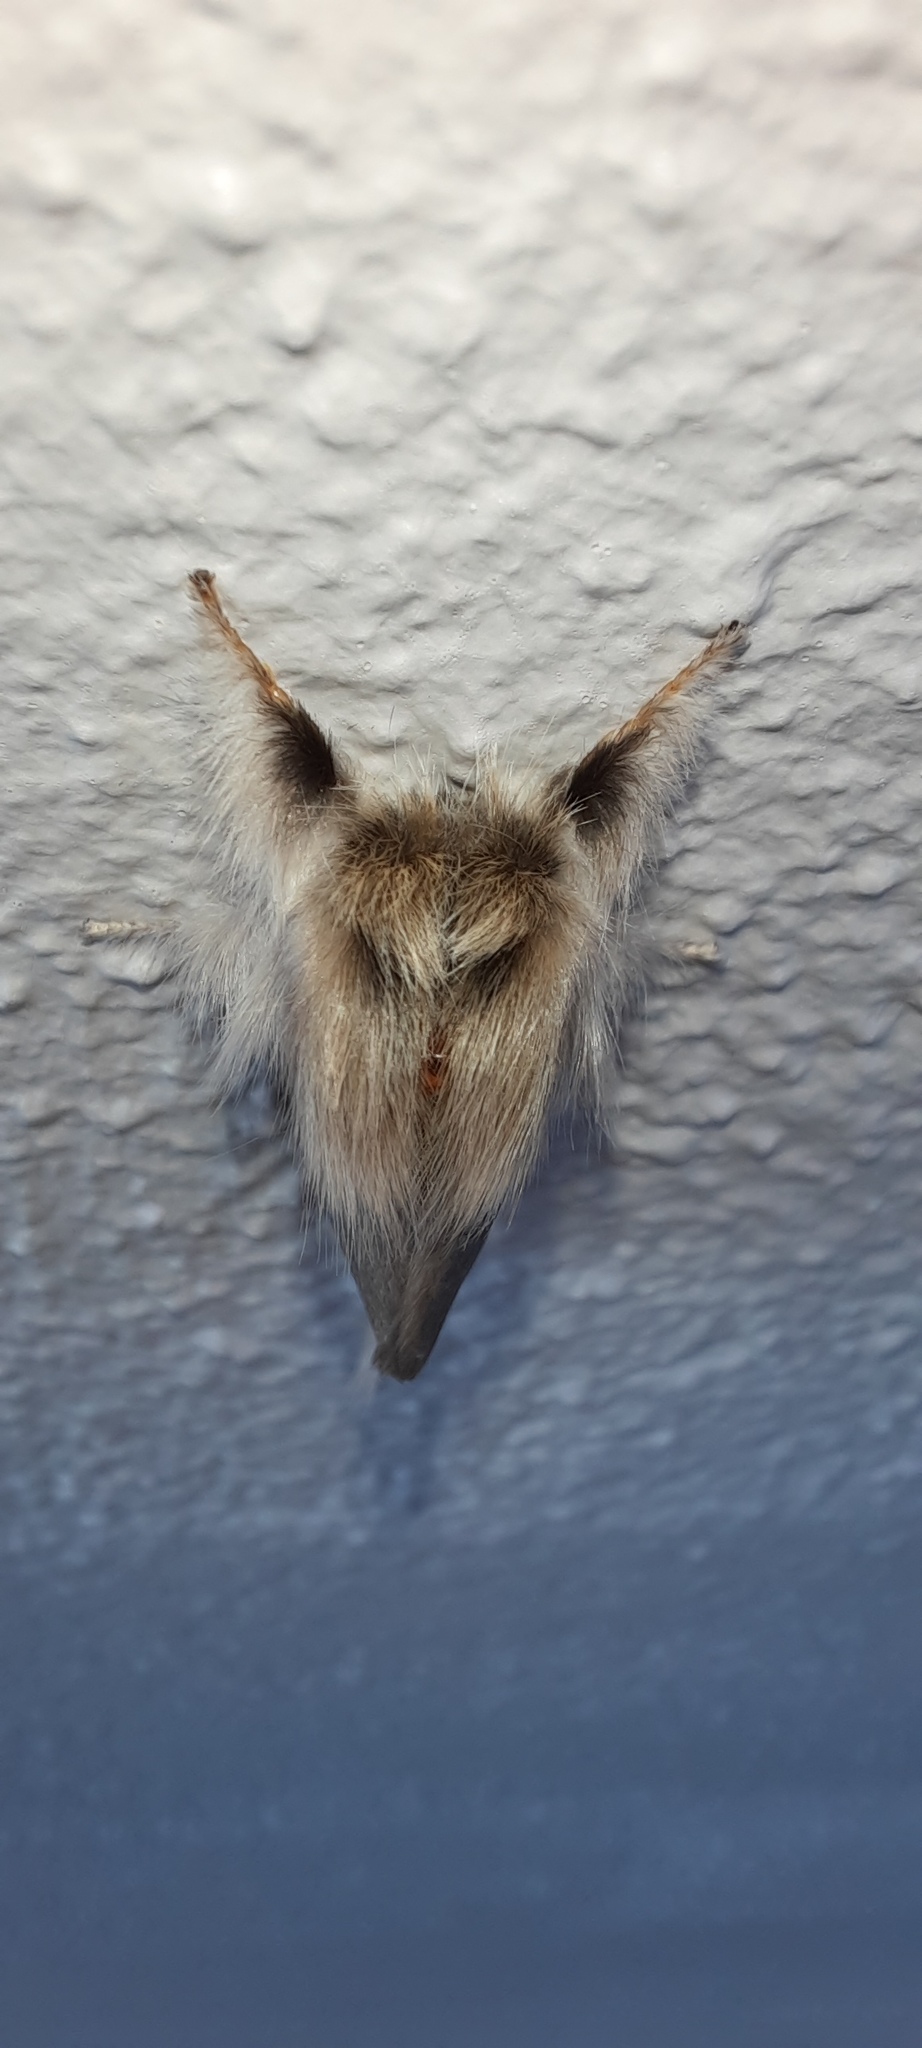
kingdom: Animalia
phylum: Arthropoda
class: Insecta
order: Lepidoptera
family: Notodontidae
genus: Trichiocercus
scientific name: Trichiocercus sparshalli
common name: Long-tailed satin
